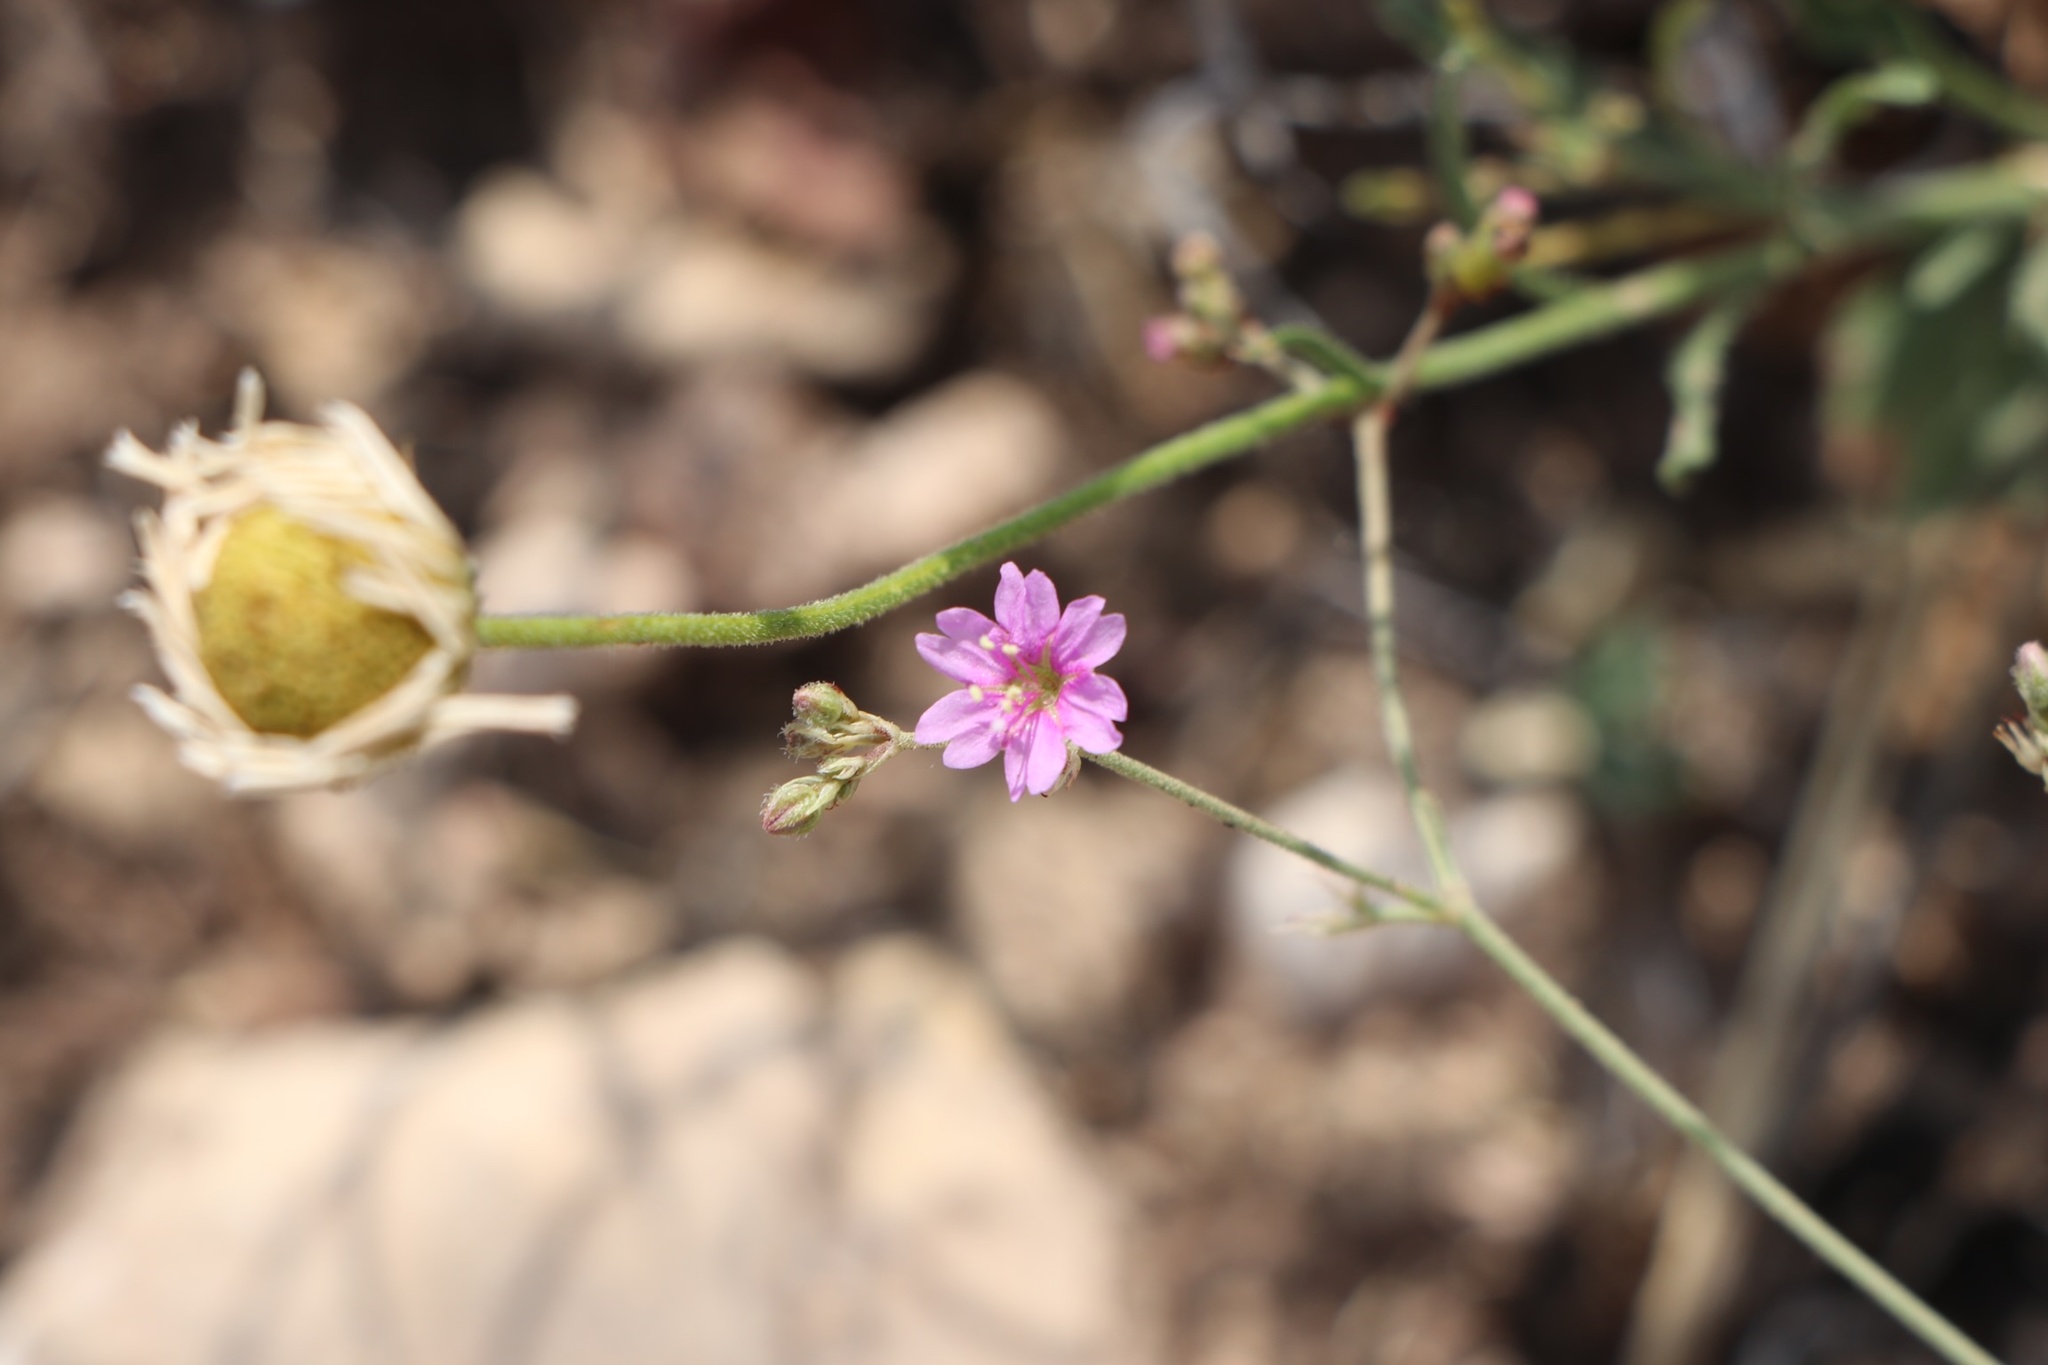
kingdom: Plantae
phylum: Tracheophyta
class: Magnoliopsida
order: Caryophyllales
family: Nyctaginaceae
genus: Boerhavia
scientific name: Boerhavia linearifolia
